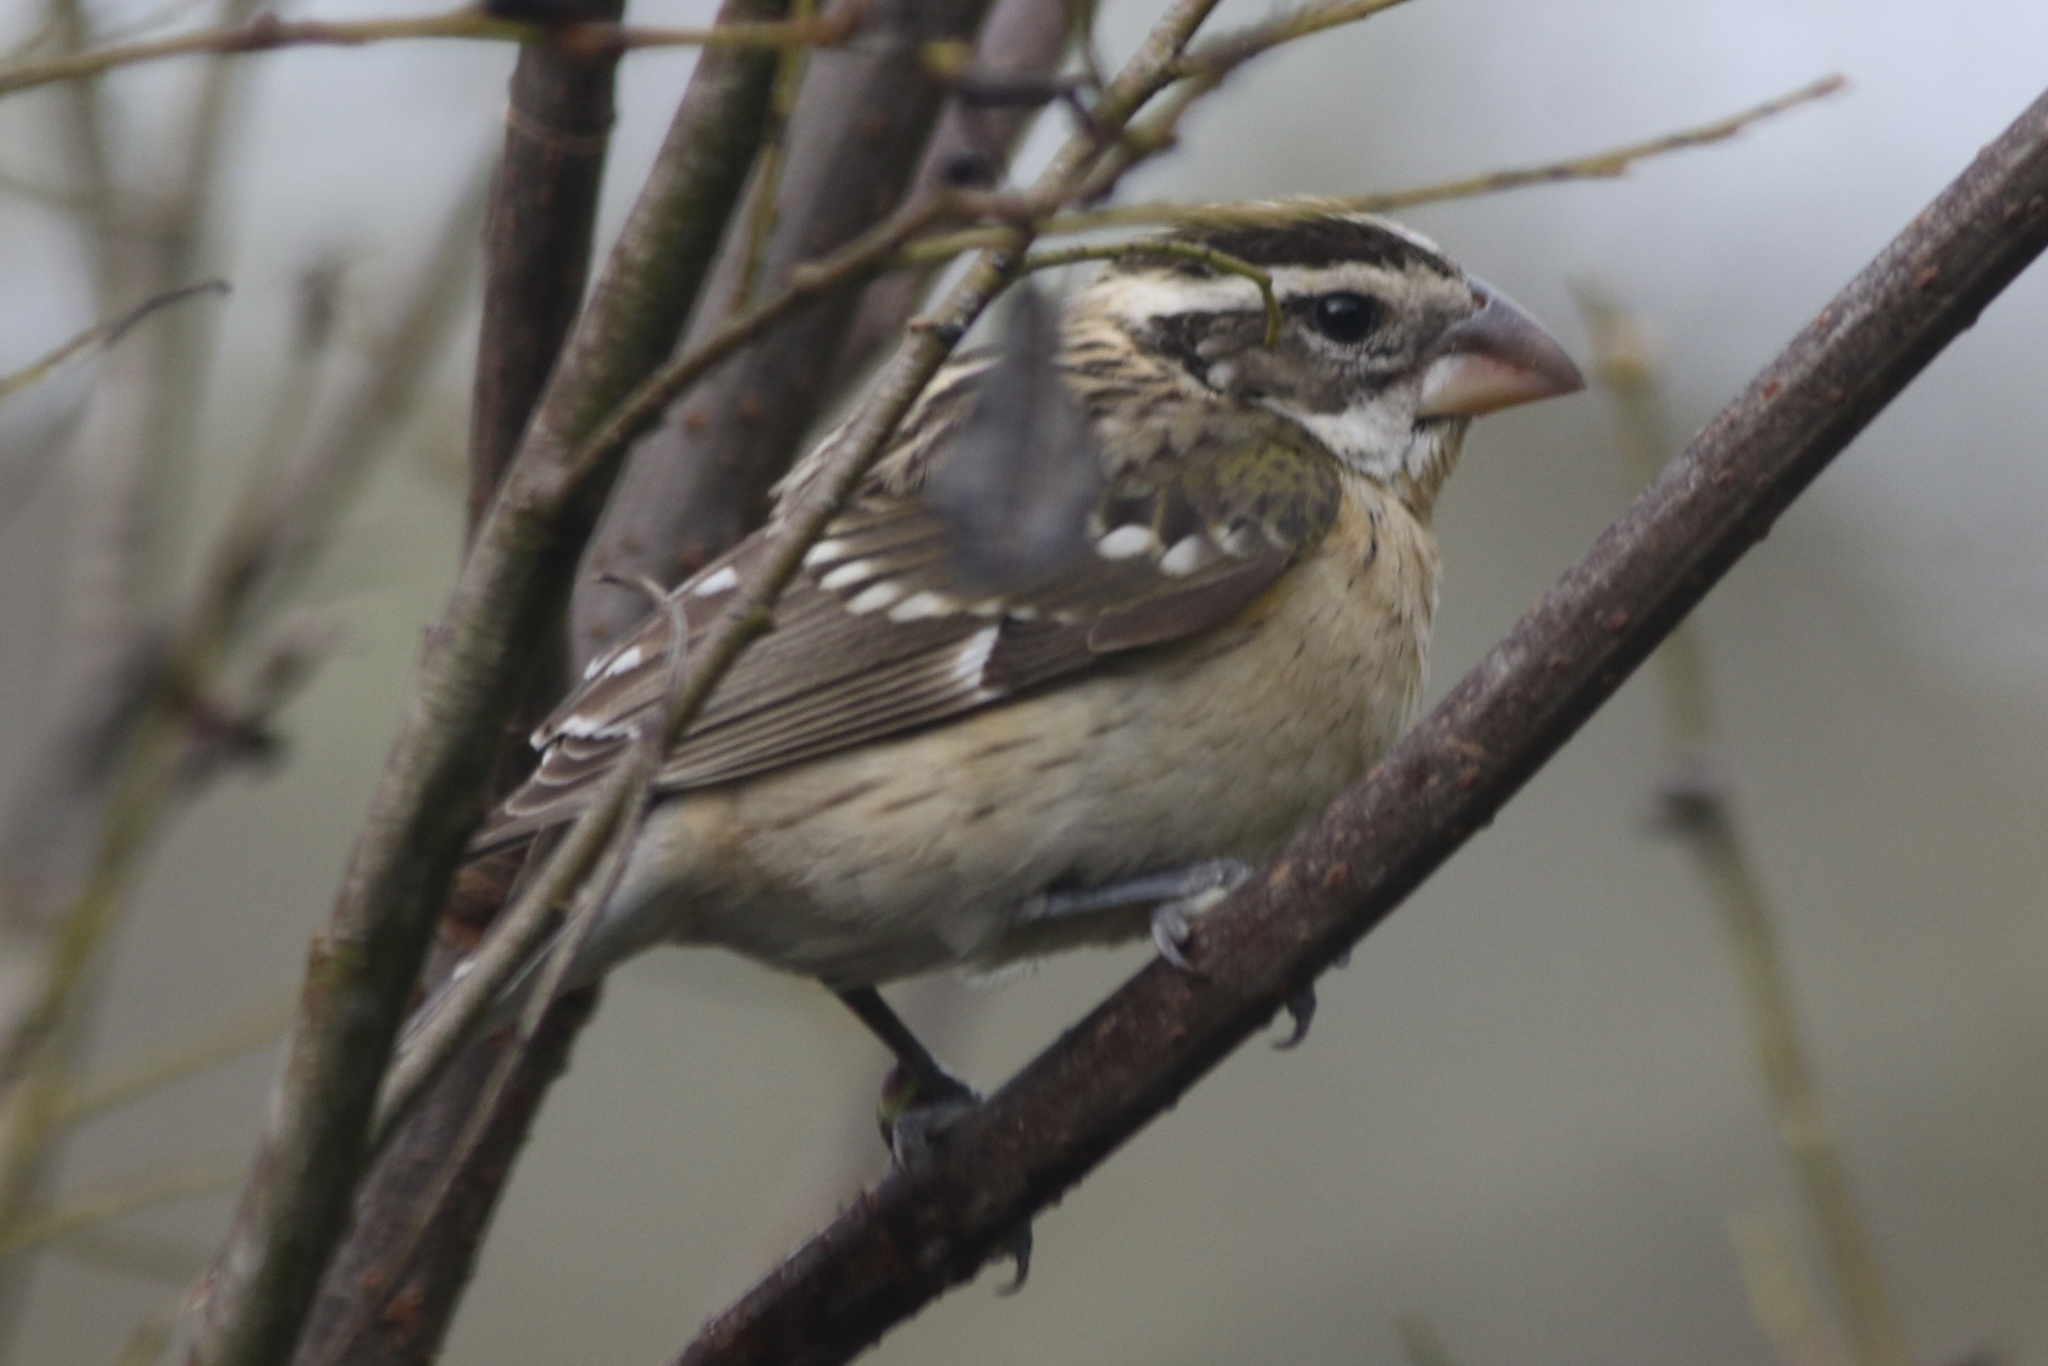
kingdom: Animalia
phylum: Chordata
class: Aves
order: Passeriformes
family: Cardinalidae
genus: Pheucticus
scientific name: Pheucticus melanocephalus
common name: Black-headed grosbeak
